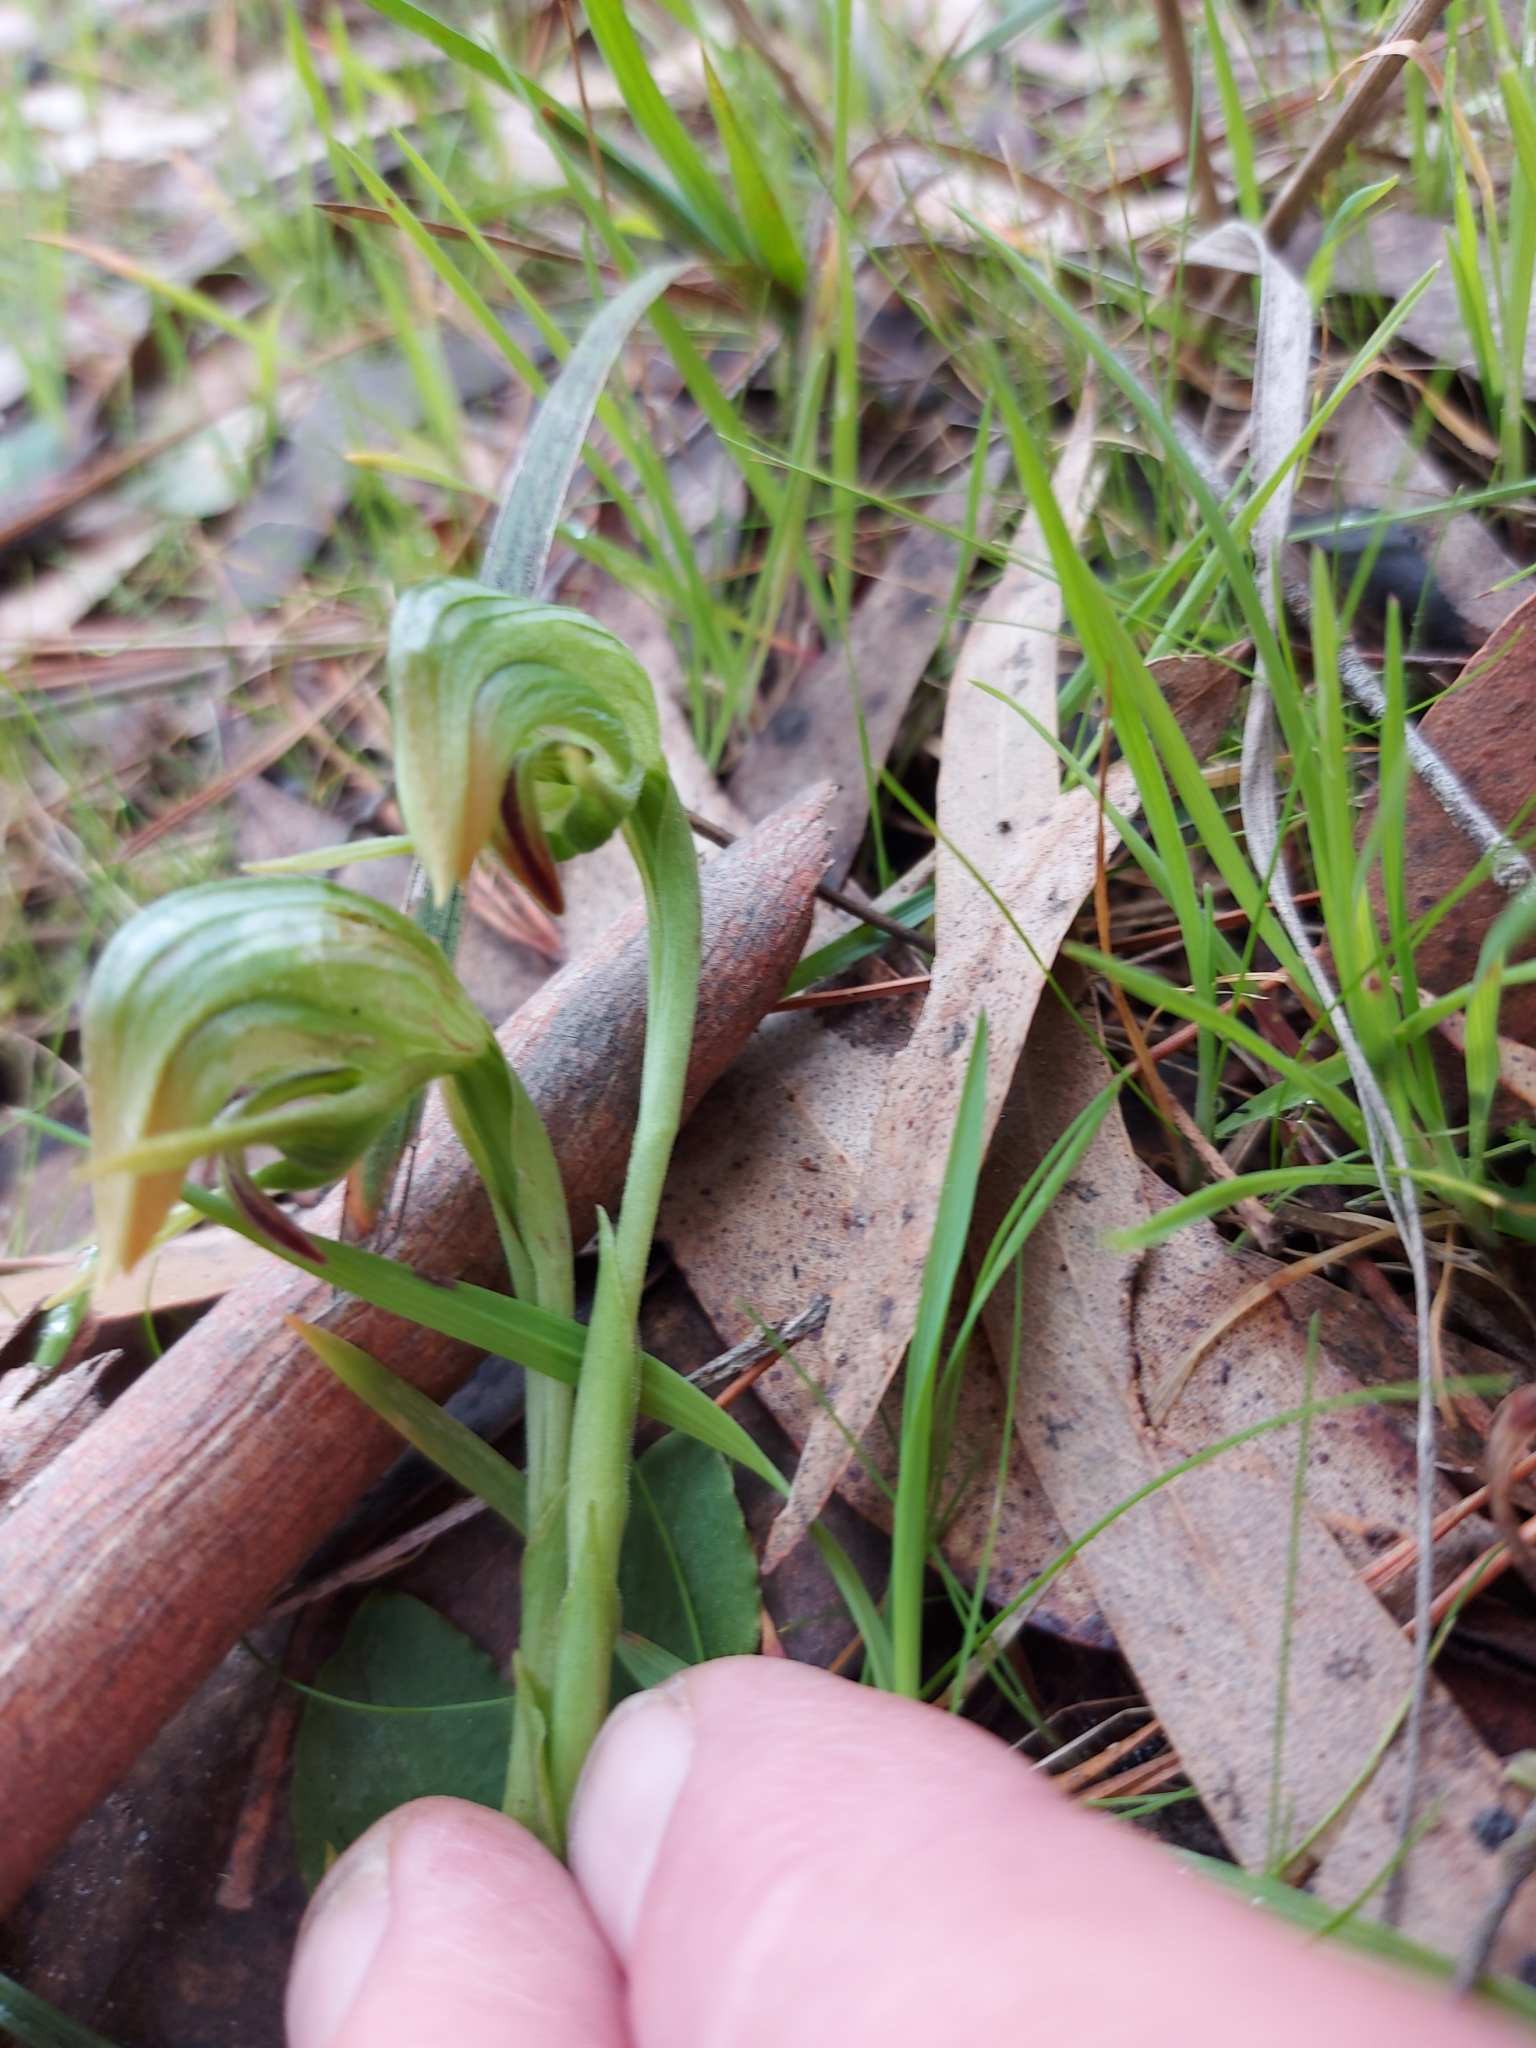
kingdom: Plantae
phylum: Tracheophyta
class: Liliopsida
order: Asparagales
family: Orchidaceae
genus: Pterostylis
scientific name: Pterostylis nutans
